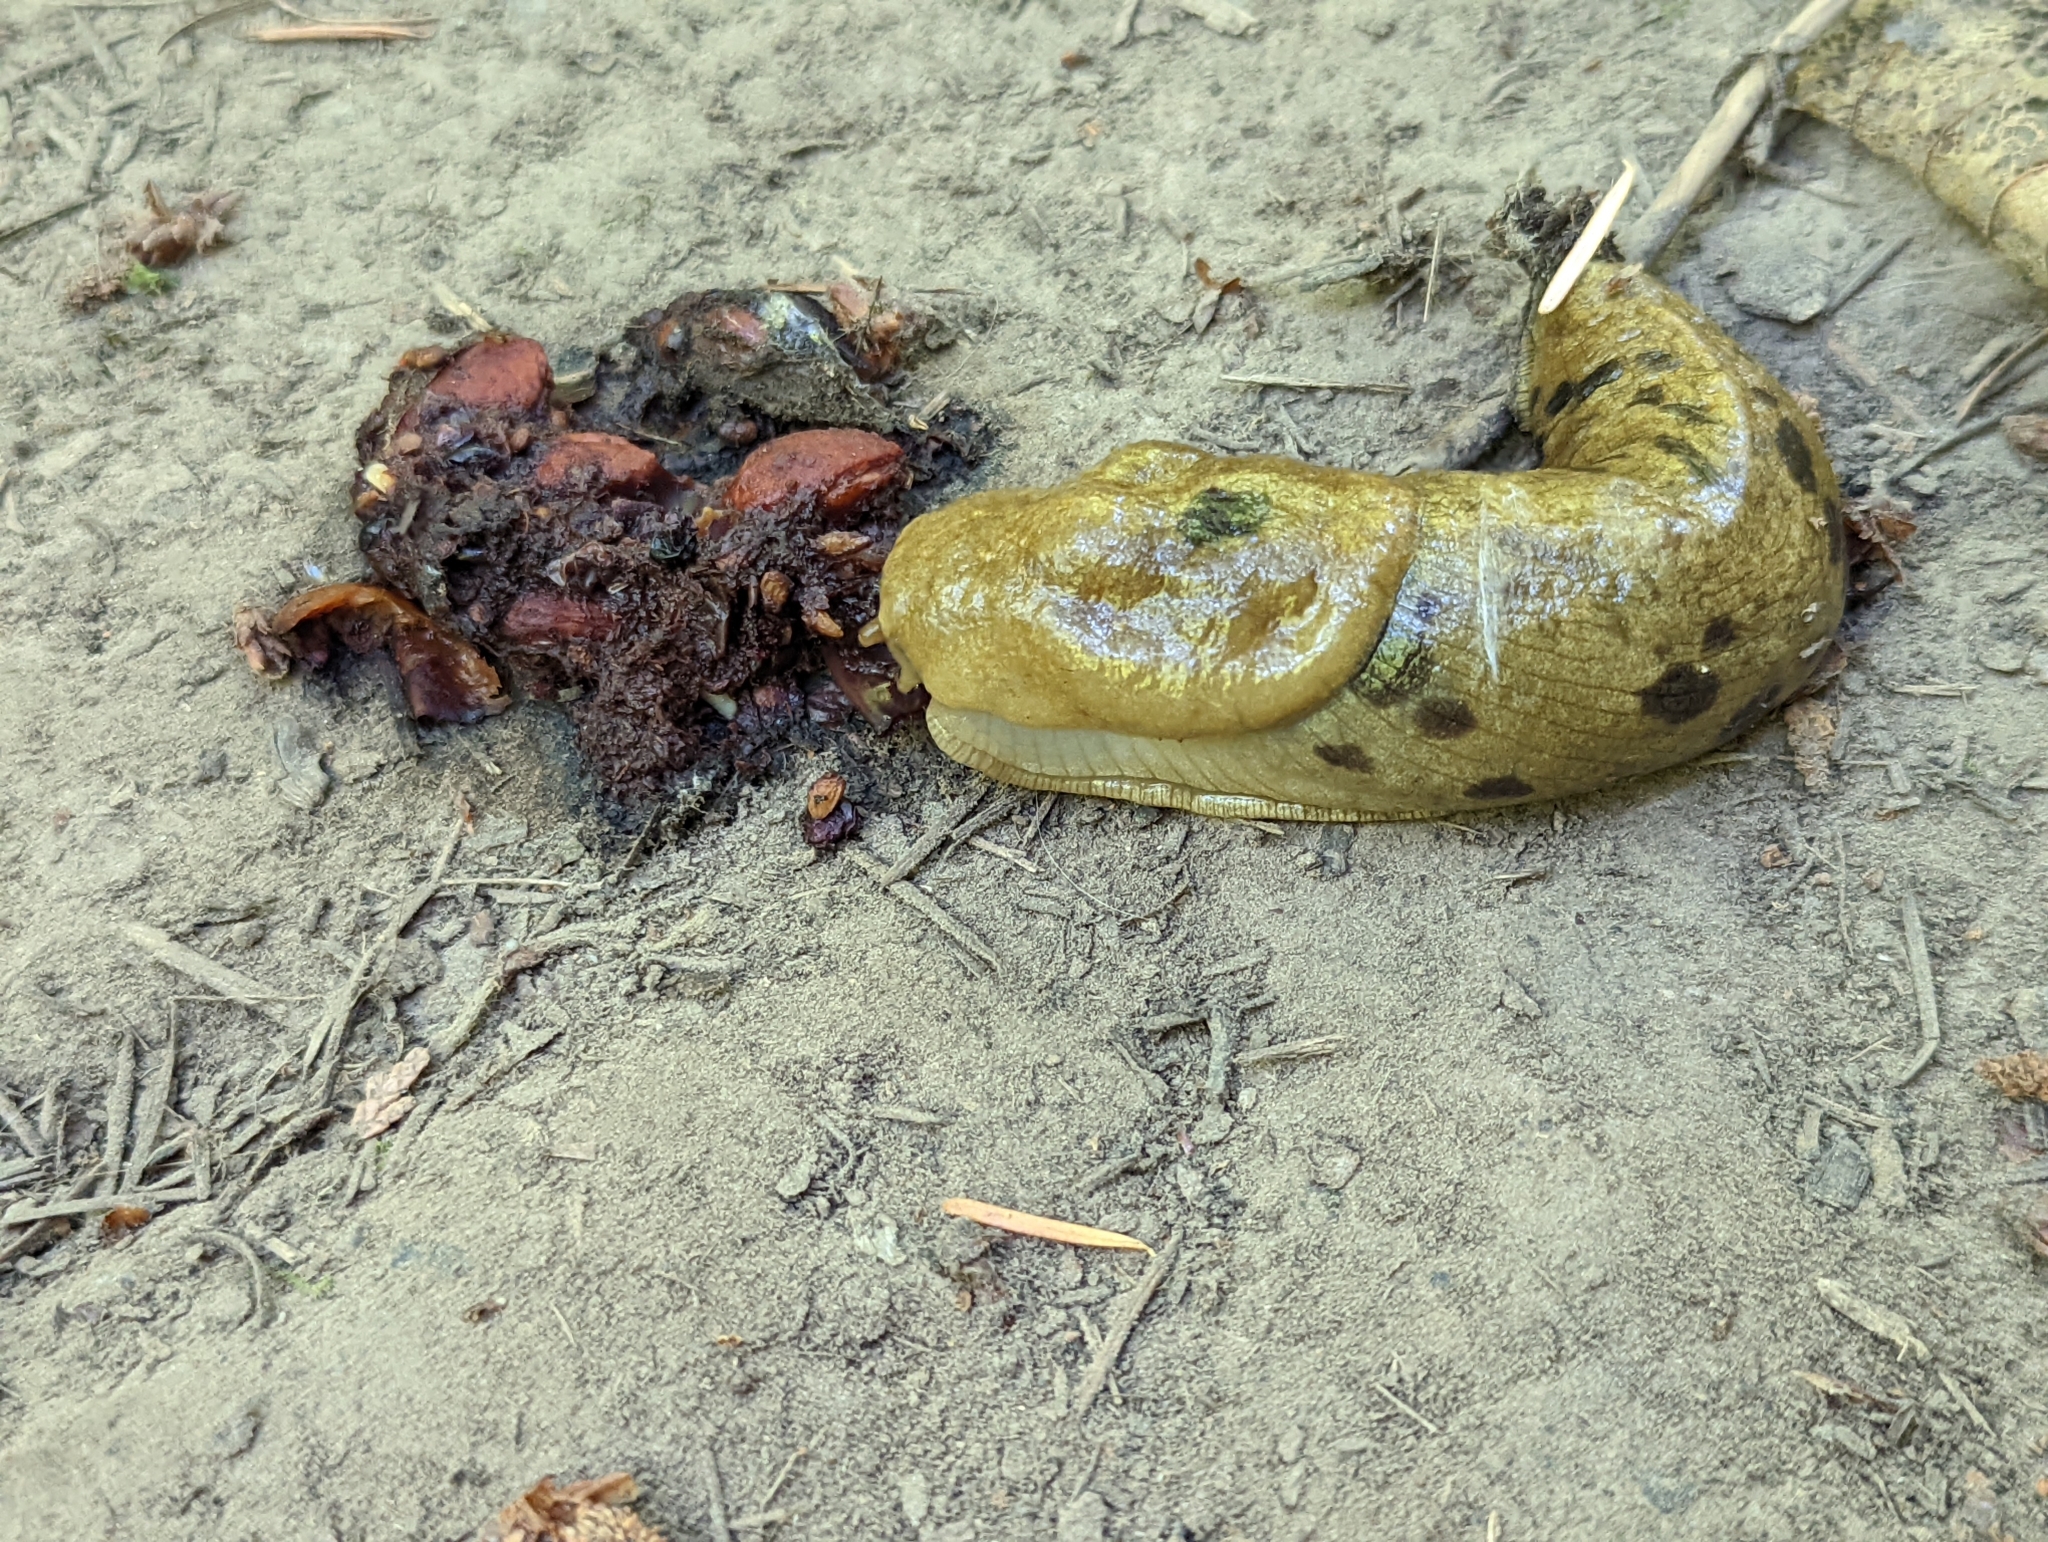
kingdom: Animalia
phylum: Mollusca
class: Gastropoda
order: Stylommatophora
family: Ariolimacidae
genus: Ariolimax
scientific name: Ariolimax columbianus
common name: Pacific banana slug
